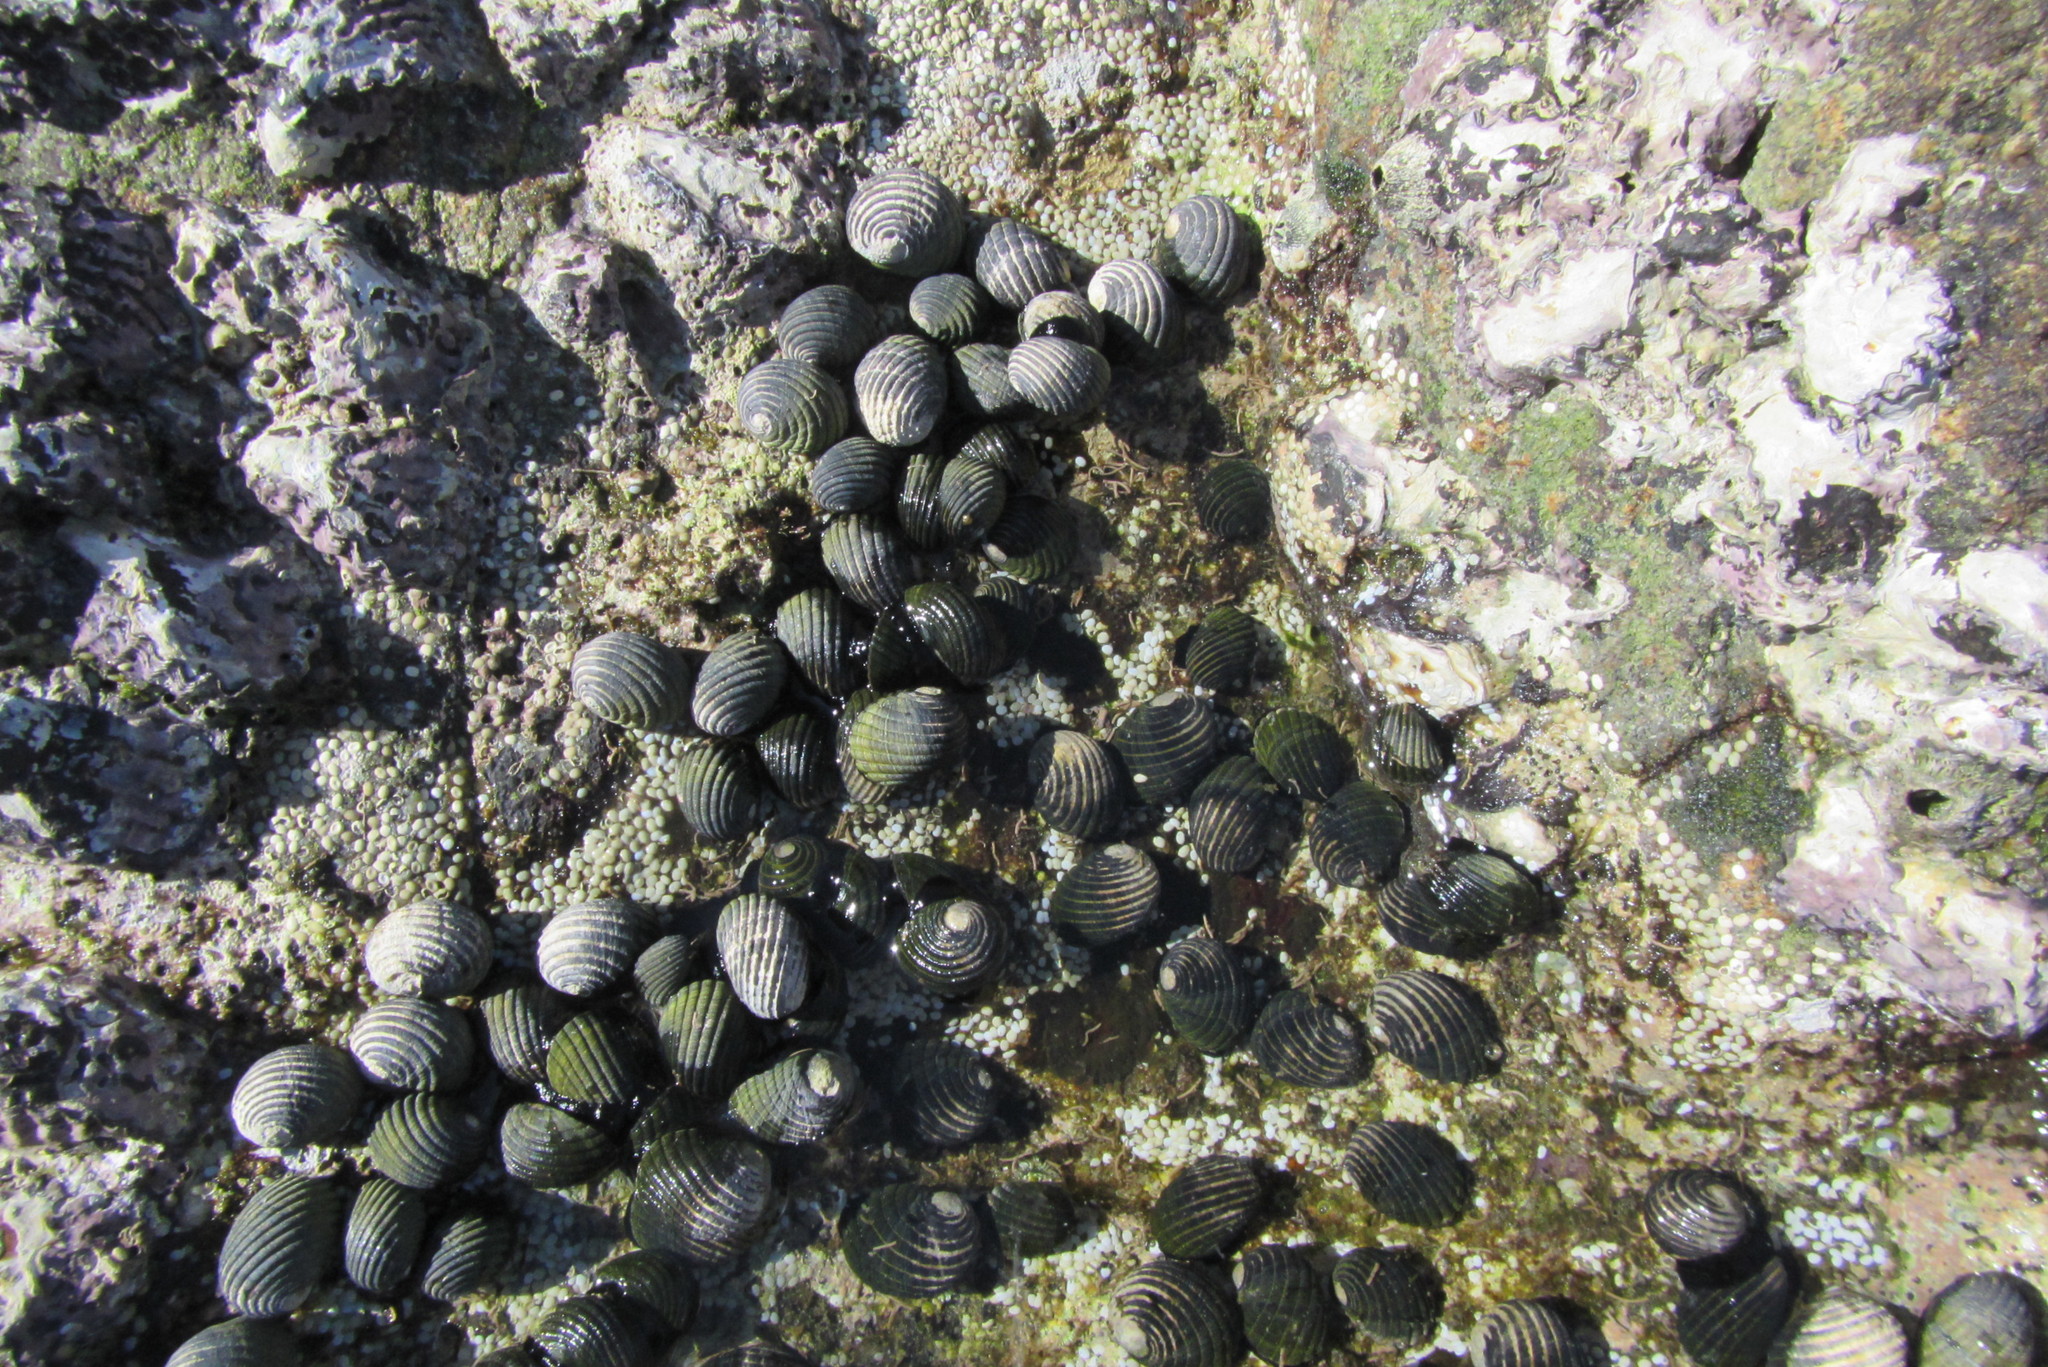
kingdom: Animalia
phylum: Mollusca
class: Gastropoda
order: Cycloneritida
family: Neritidae
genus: Nerita
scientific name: Nerita costata
